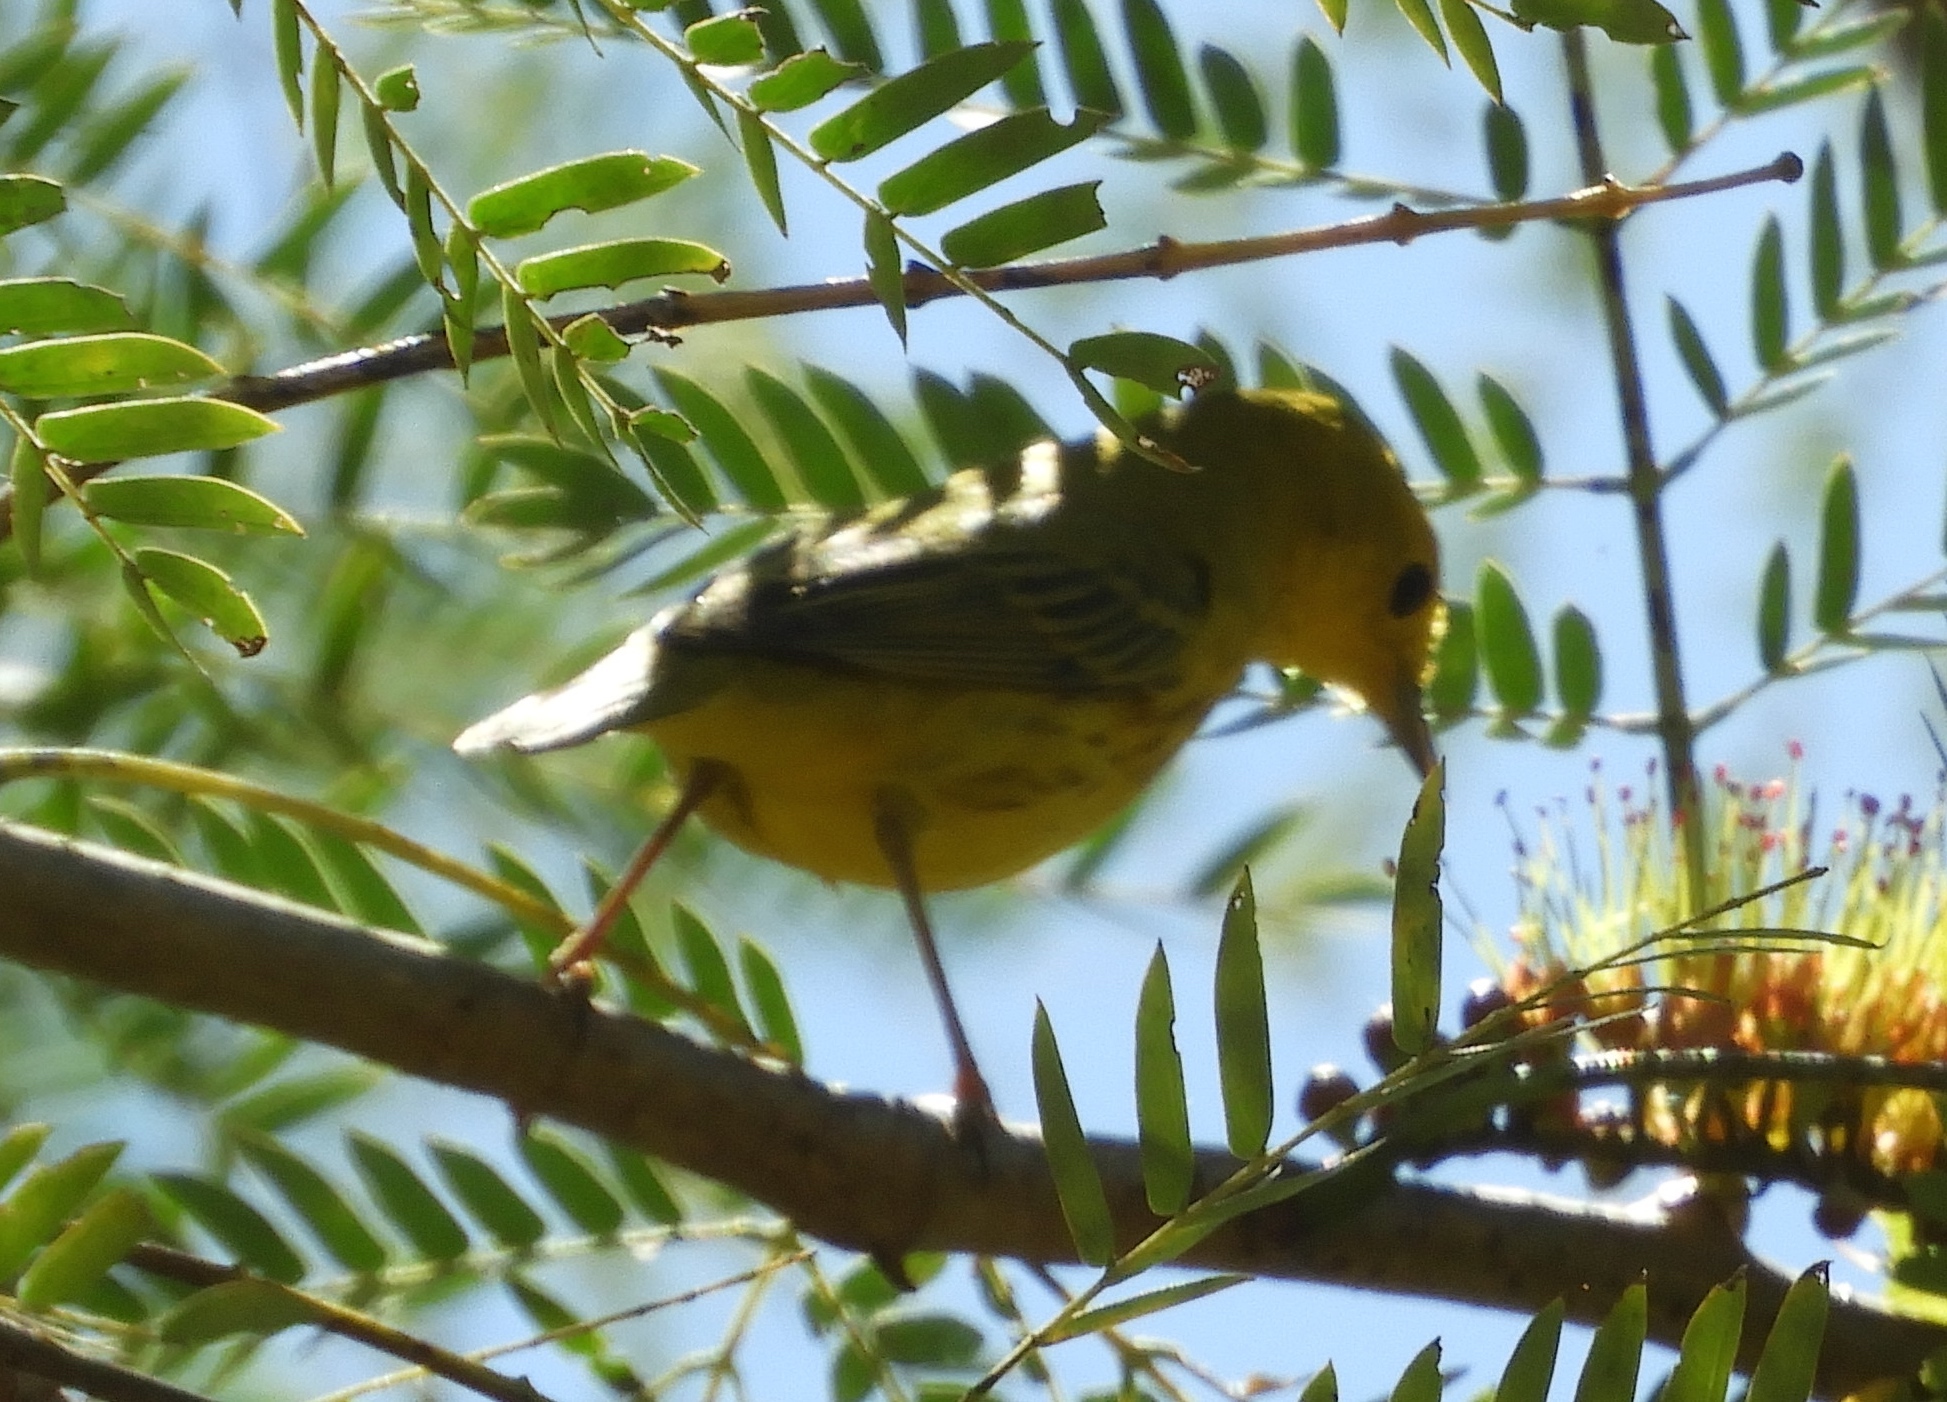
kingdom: Animalia
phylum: Chordata
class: Aves
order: Passeriformes
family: Parulidae
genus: Setophaga
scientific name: Setophaga petechia
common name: Yellow warbler
